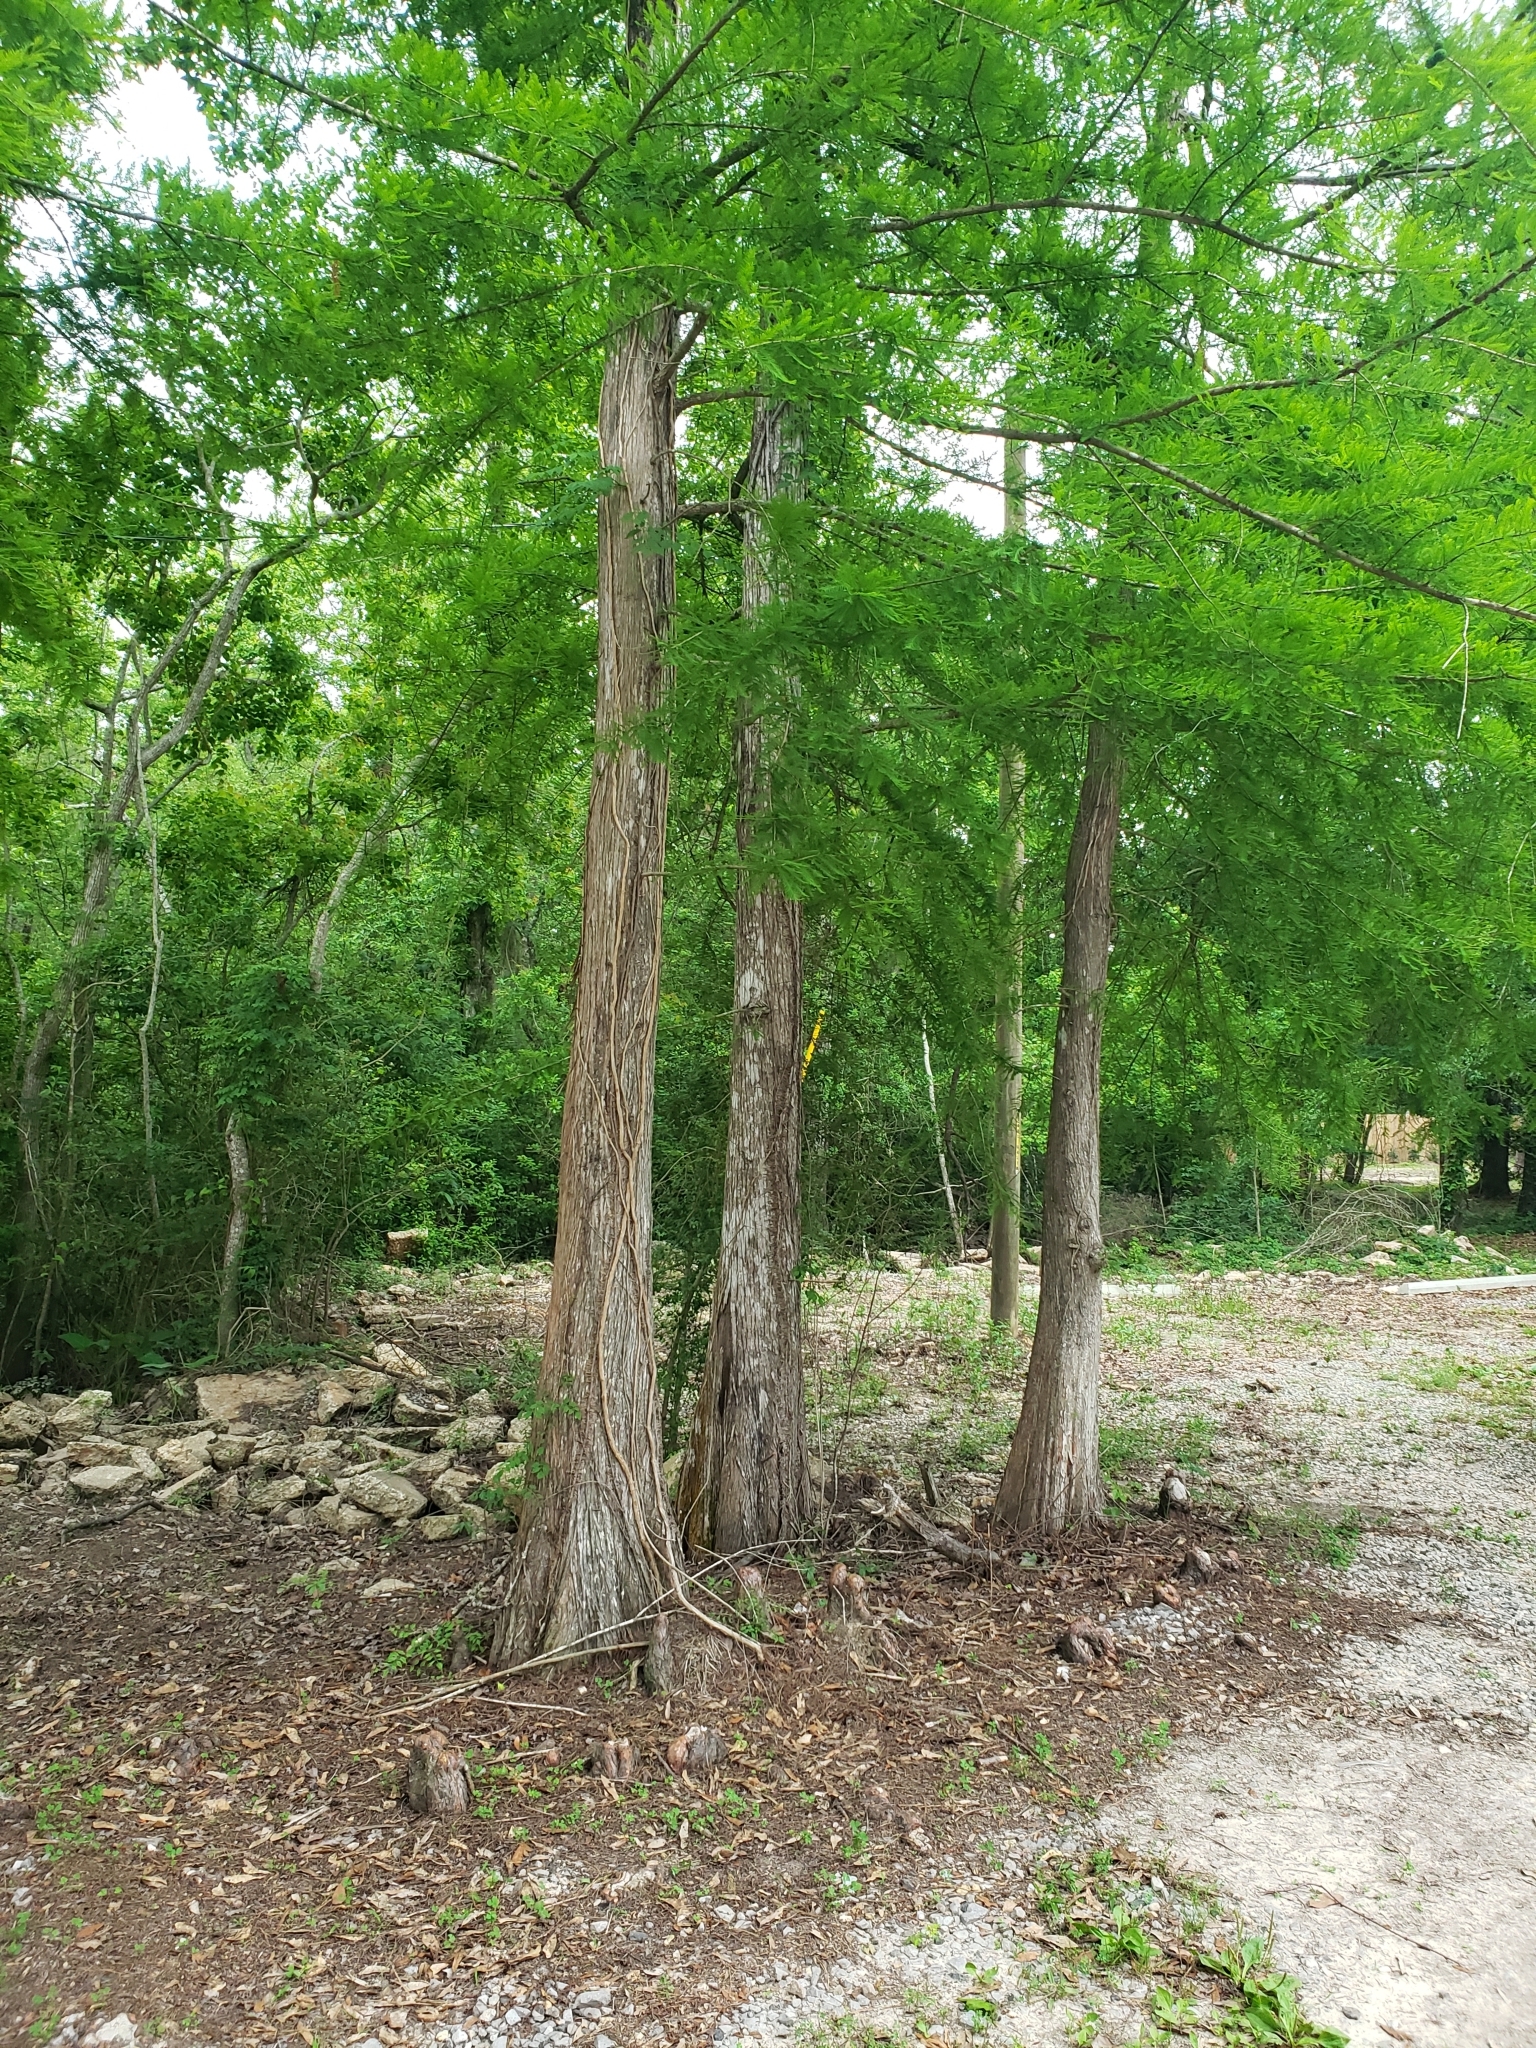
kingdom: Plantae
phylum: Tracheophyta
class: Pinopsida
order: Pinales
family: Cupressaceae
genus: Taxodium
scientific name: Taxodium distichum
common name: Bald cypress
